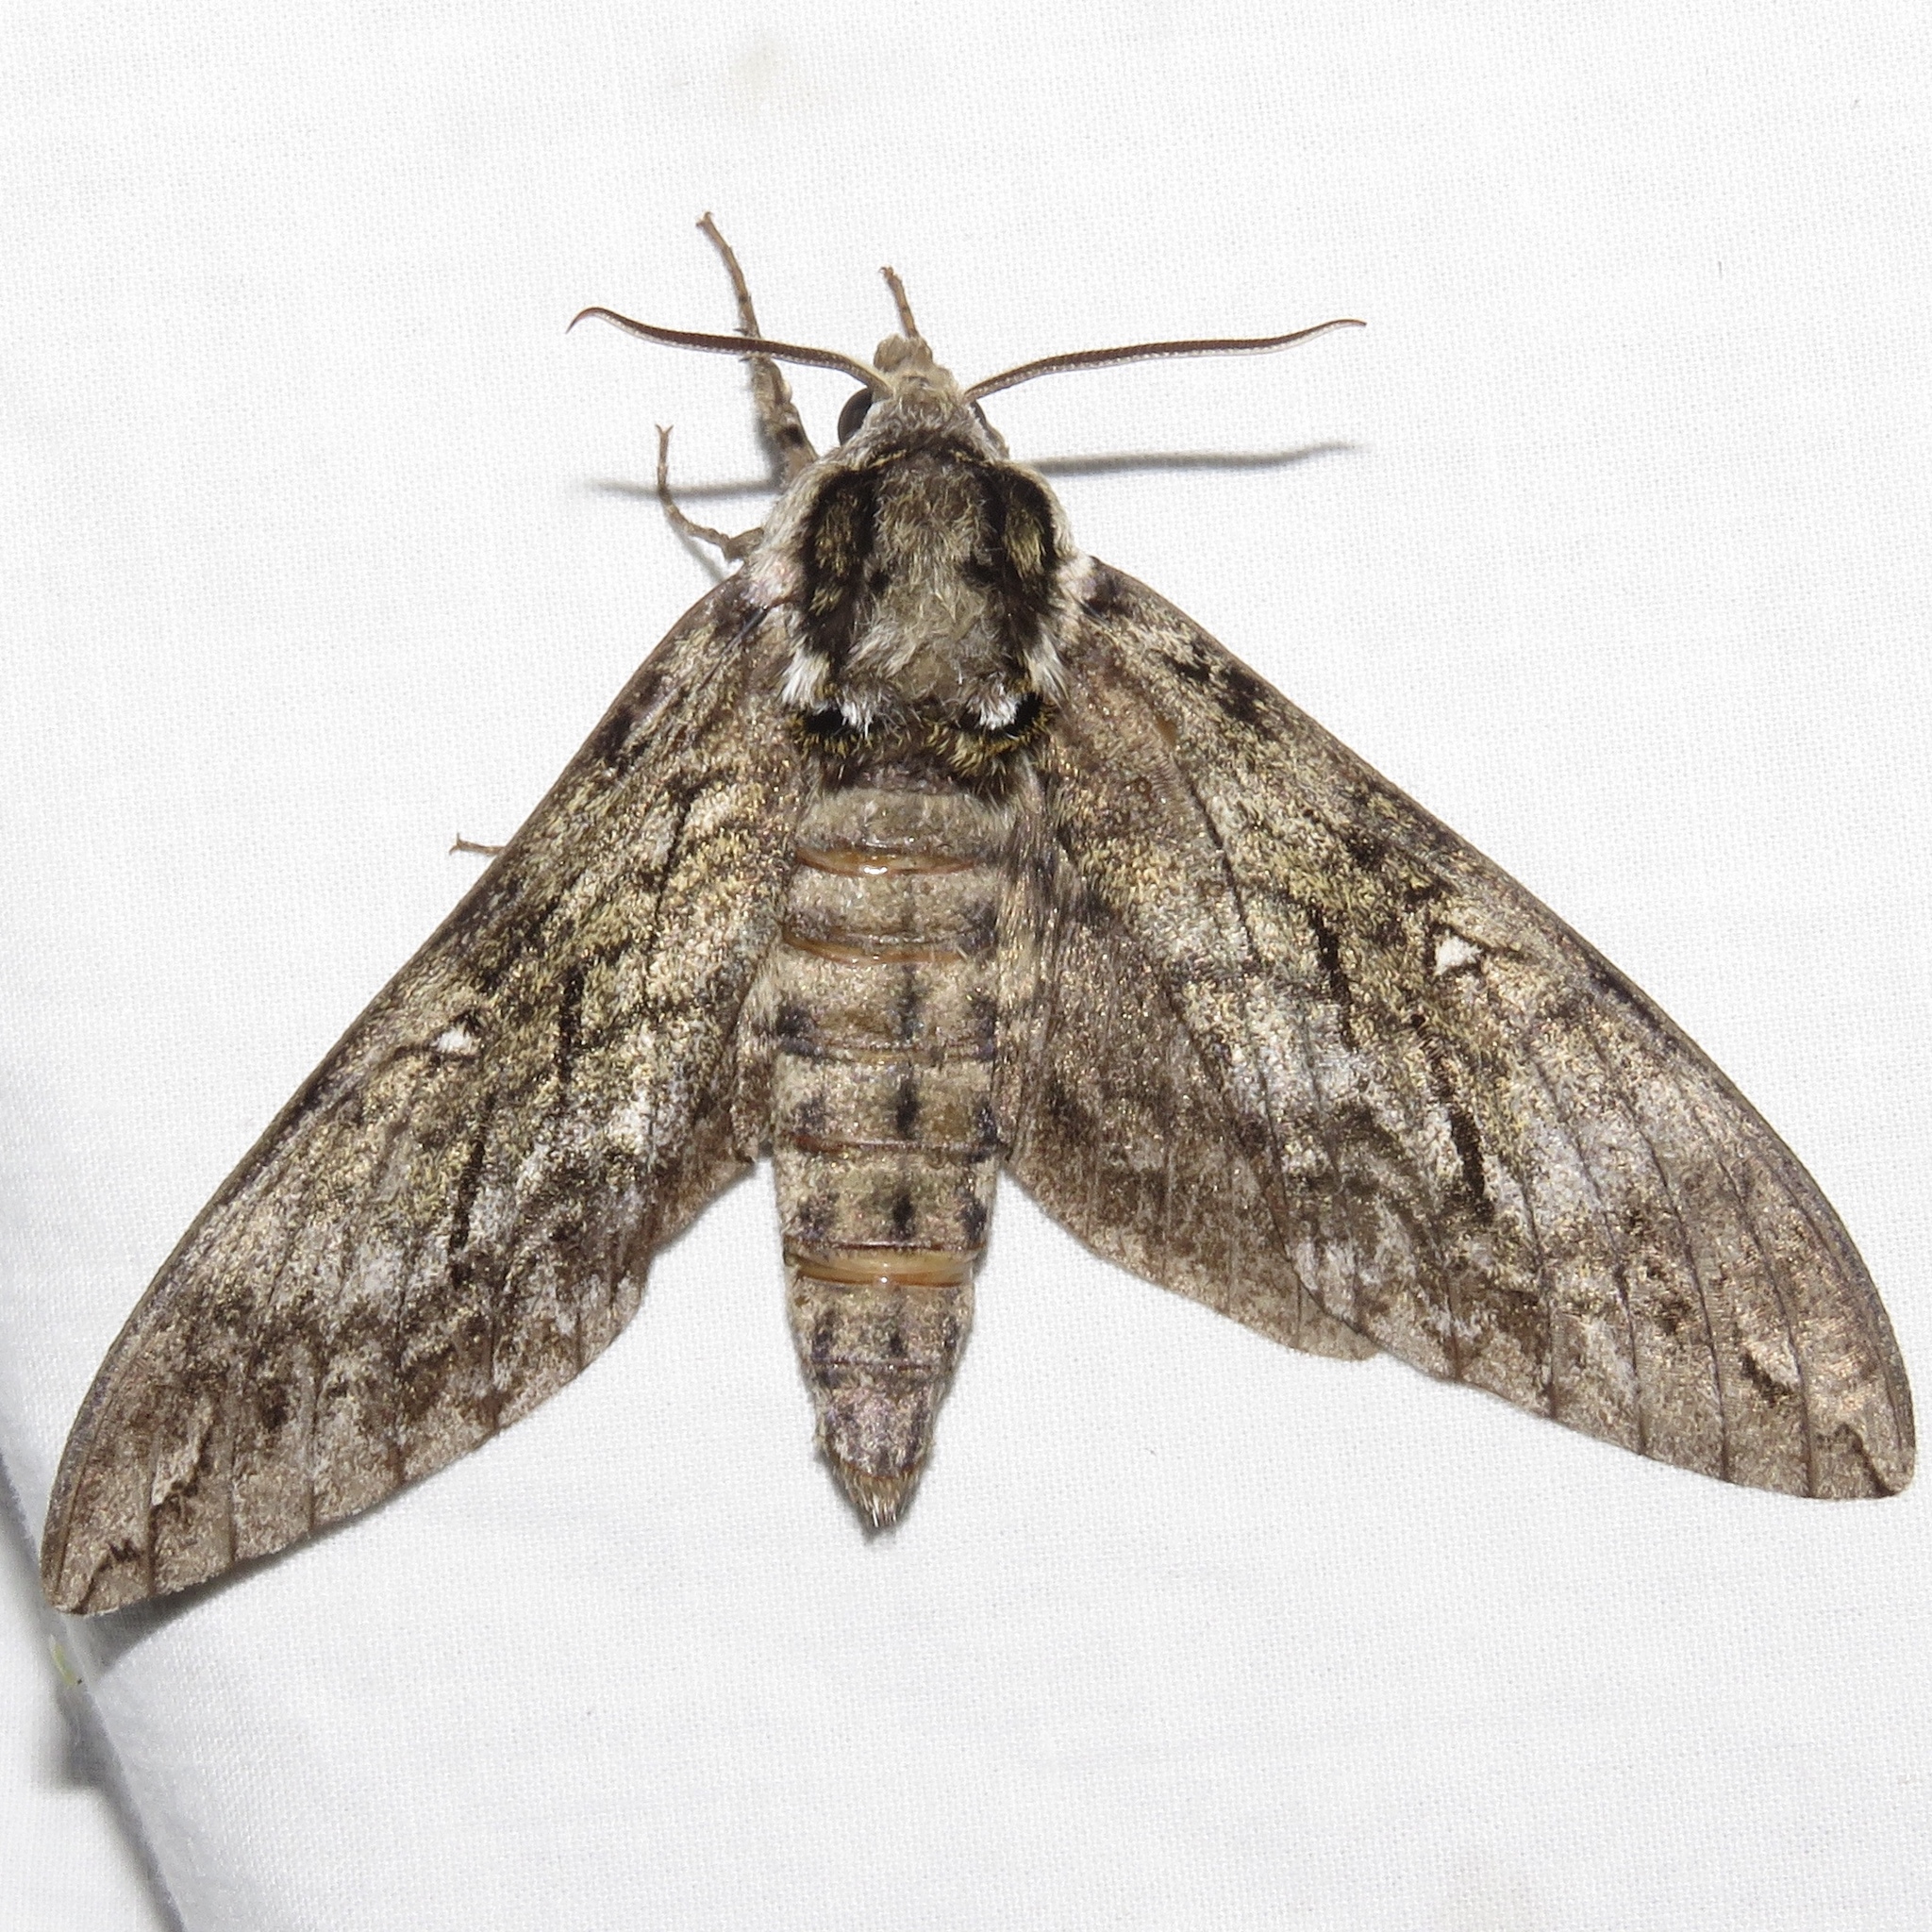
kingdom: Animalia
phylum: Arthropoda
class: Insecta
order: Lepidoptera
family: Sphingidae
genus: Ceratomia
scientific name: Ceratomia undulosa
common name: Waved sphinx
